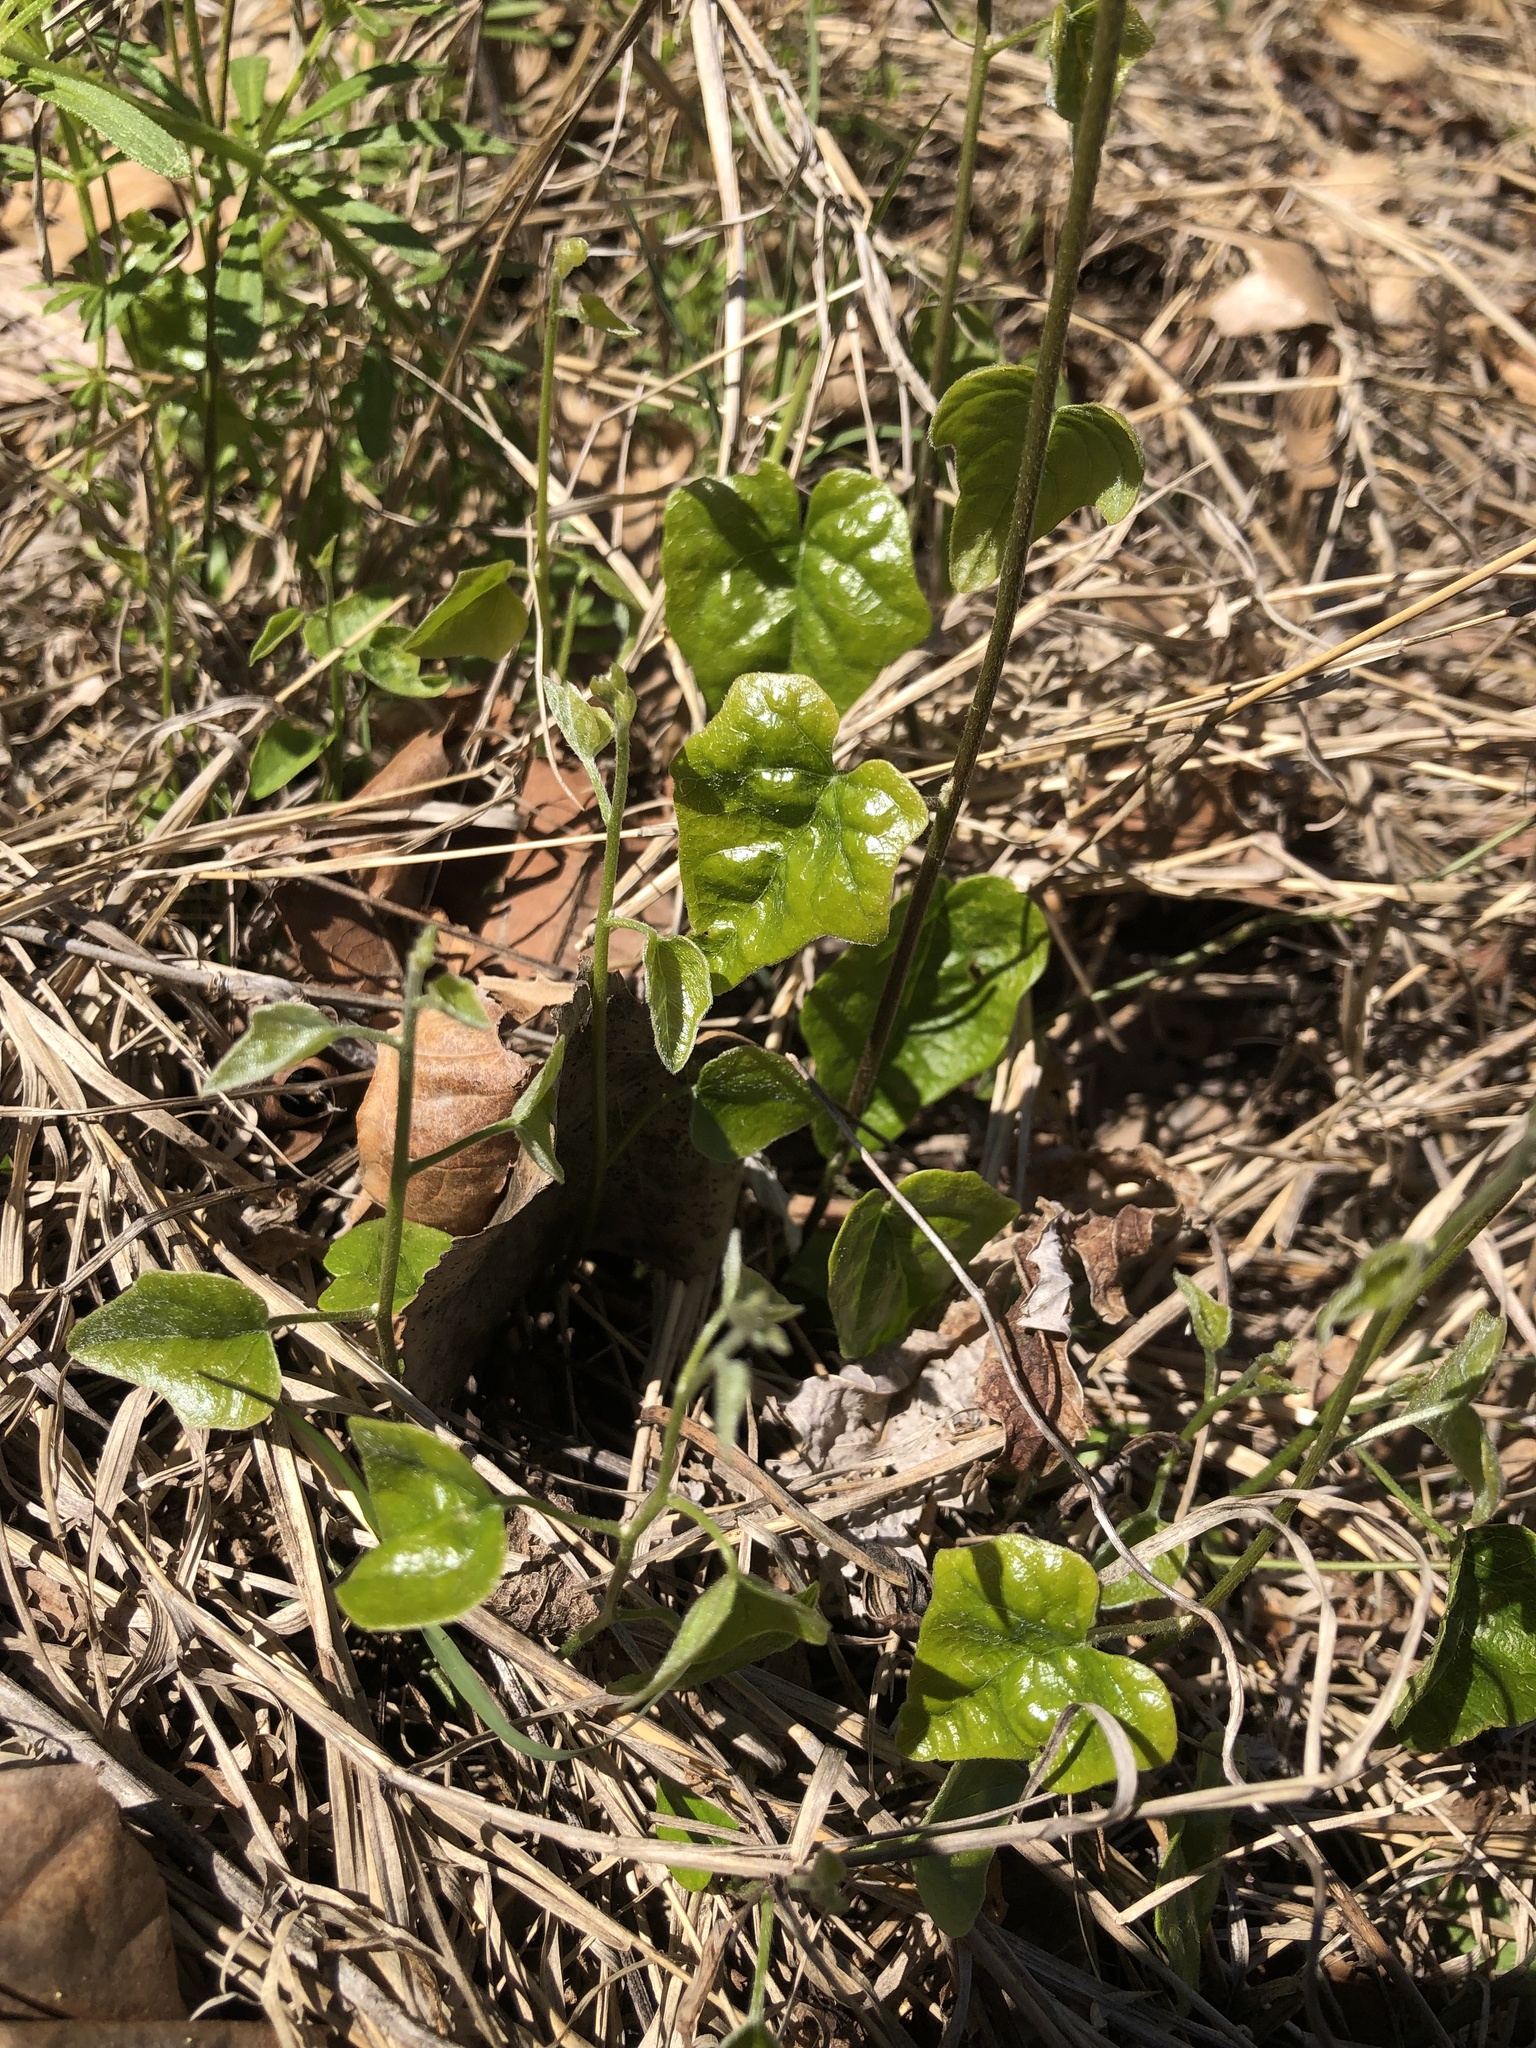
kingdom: Plantae
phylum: Tracheophyta
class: Magnoliopsida
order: Ranunculales
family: Menispermaceae
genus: Cocculus
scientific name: Cocculus carolinus
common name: Carolina moonseed
